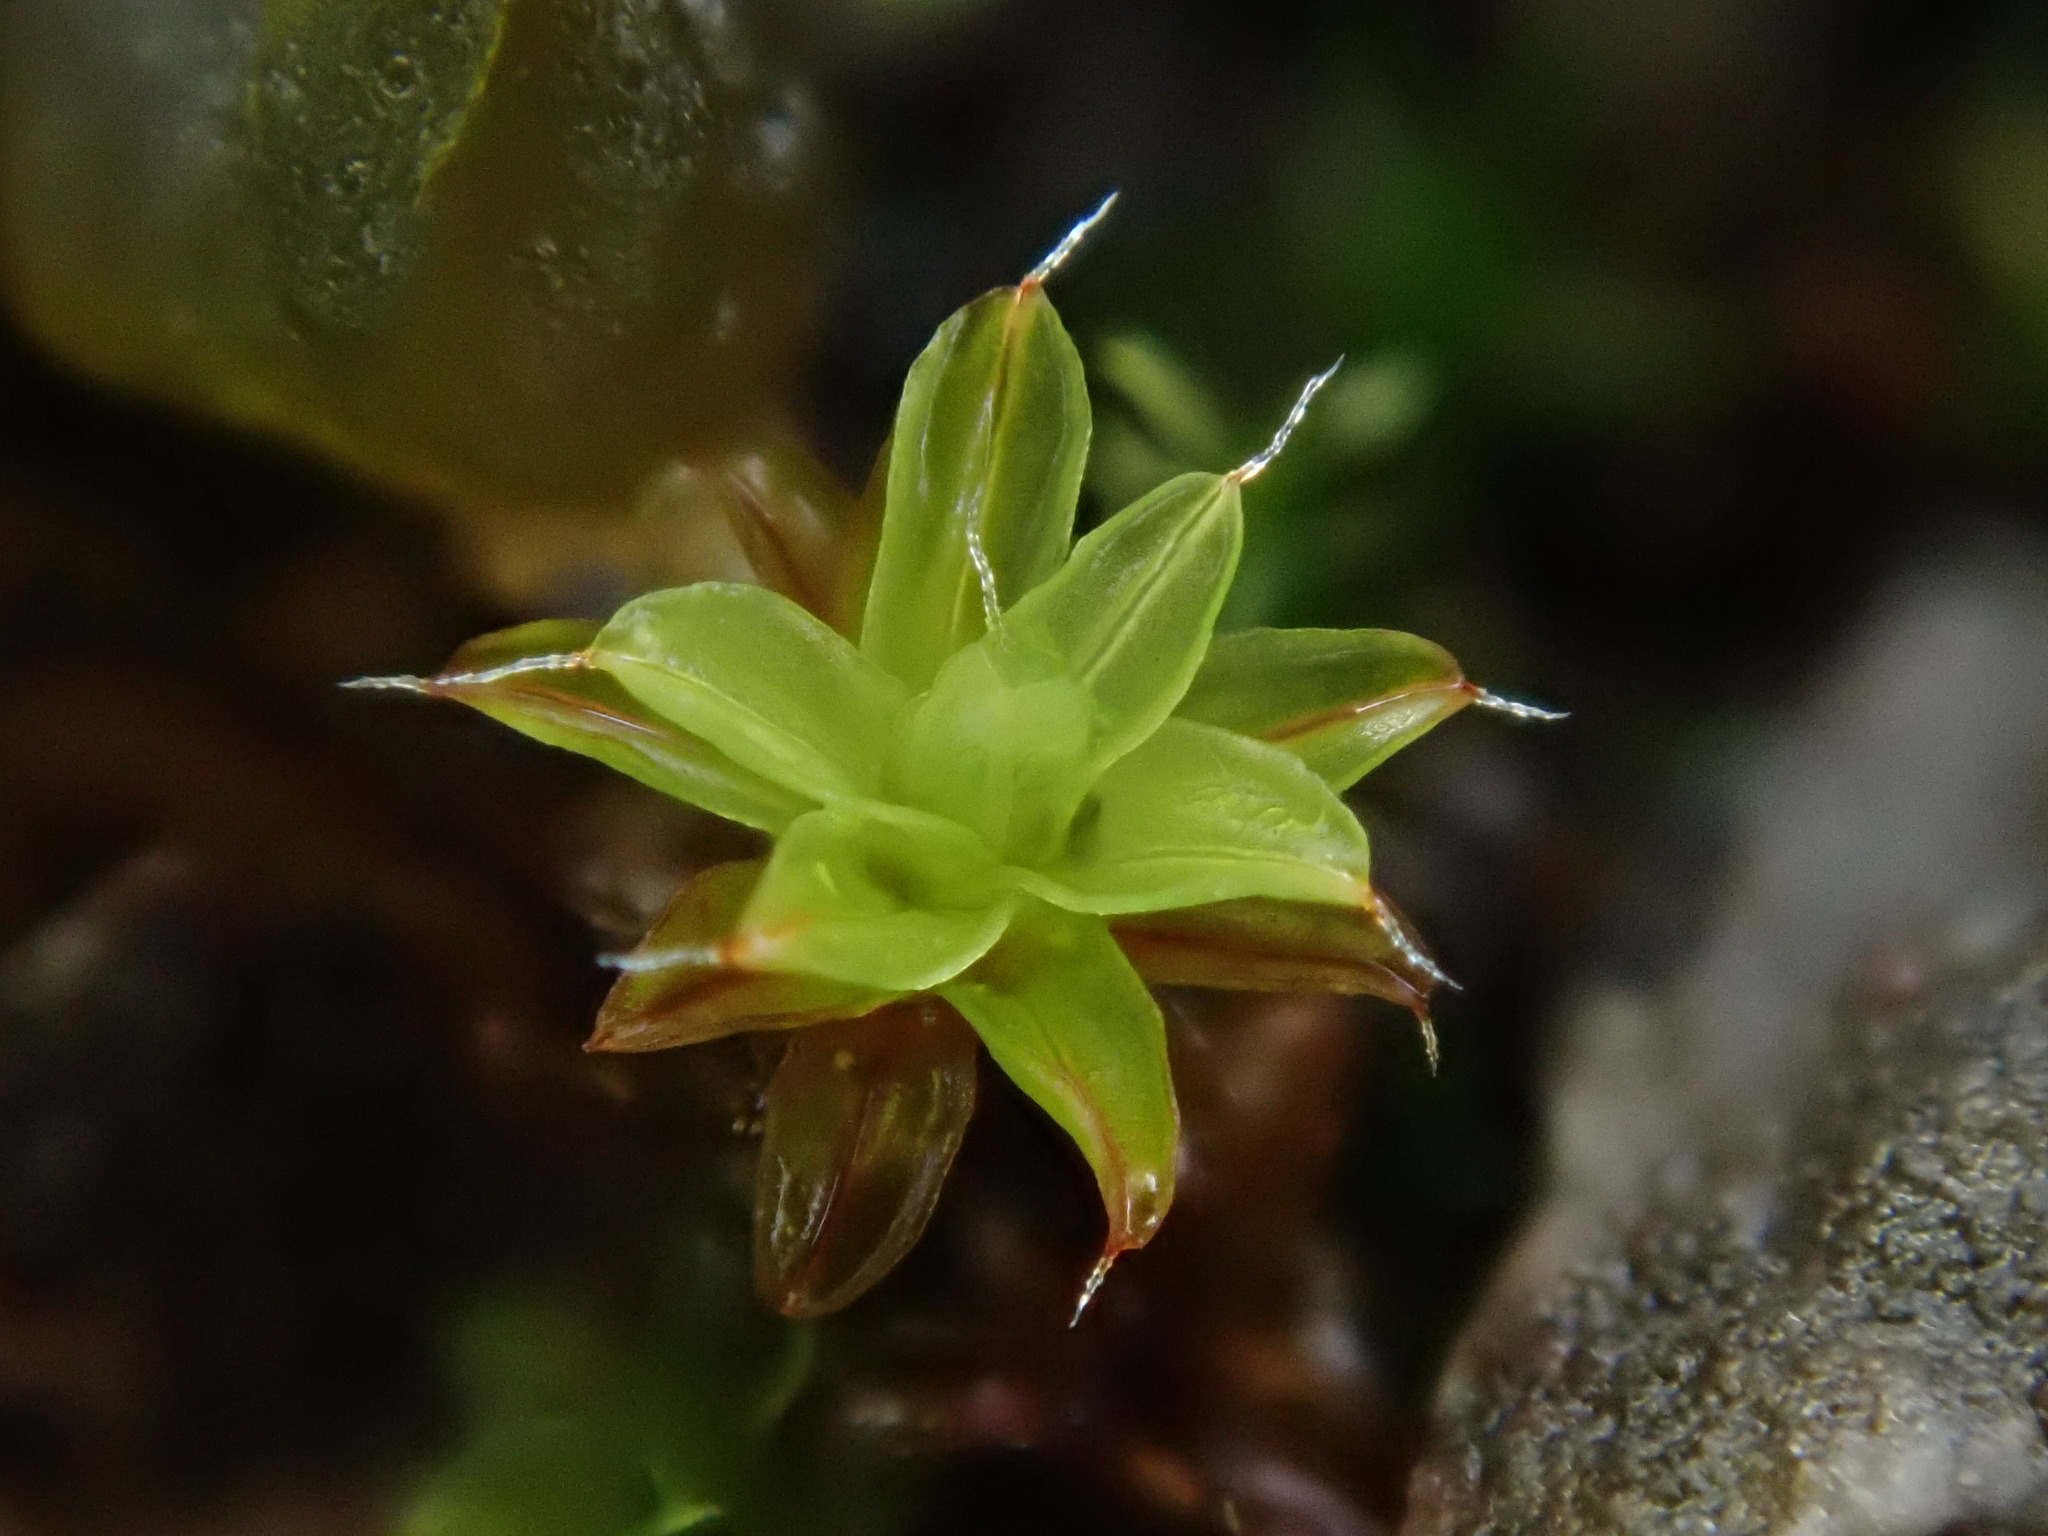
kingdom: Plantae
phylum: Bryophyta
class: Bryopsida
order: Pottiales
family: Pottiaceae
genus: Syntrichia
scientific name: Syntrichia ruralis
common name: Sidewalk screw moss
